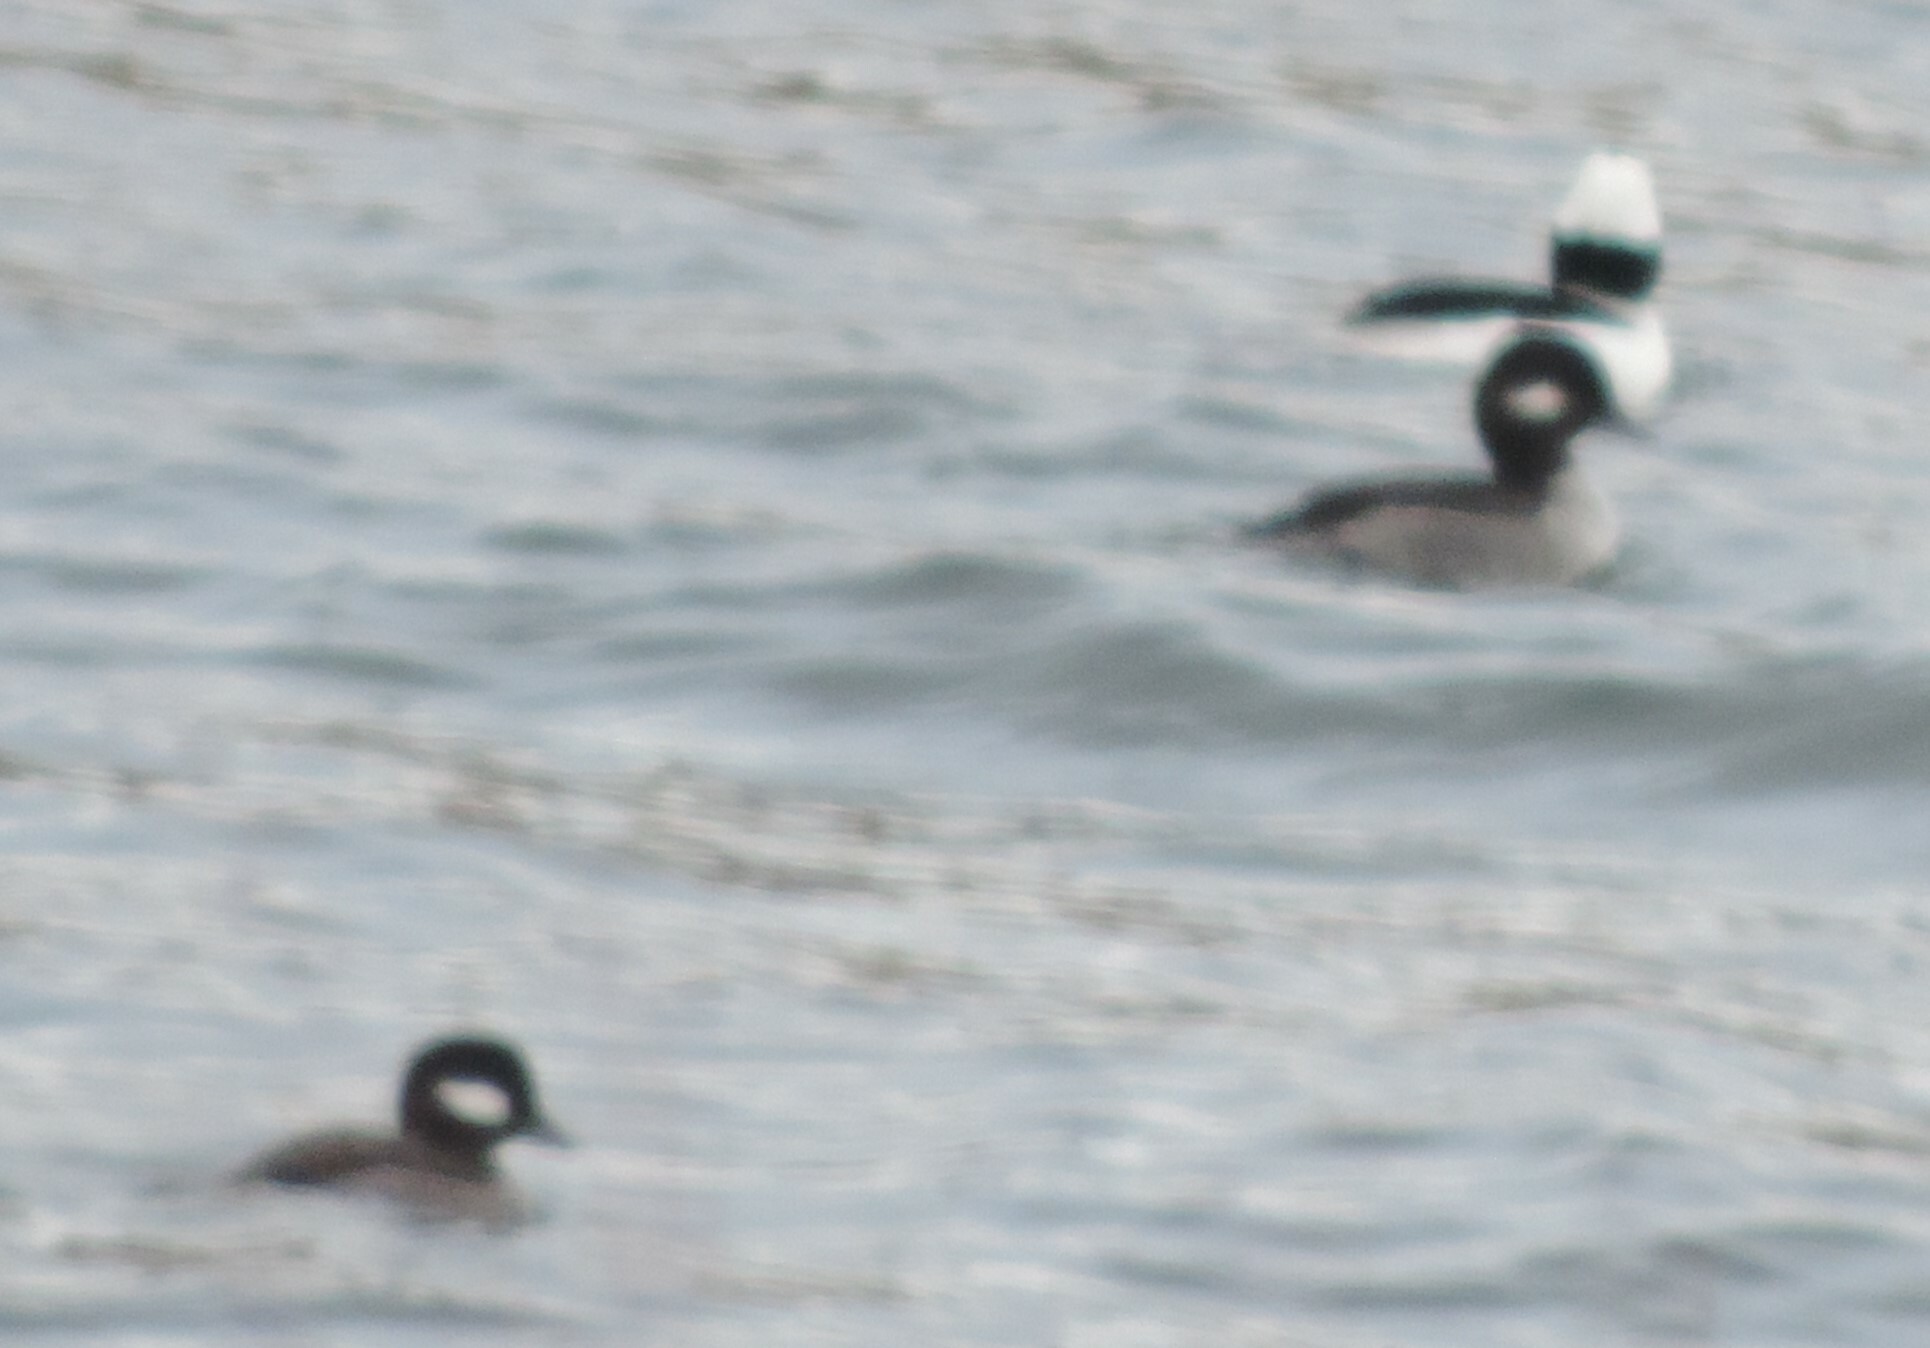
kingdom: Animalia
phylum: Chordata
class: Aves
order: Anseriformes
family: Anatidae
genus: Bucephala
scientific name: Bucephala albeola
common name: Bufflehead
